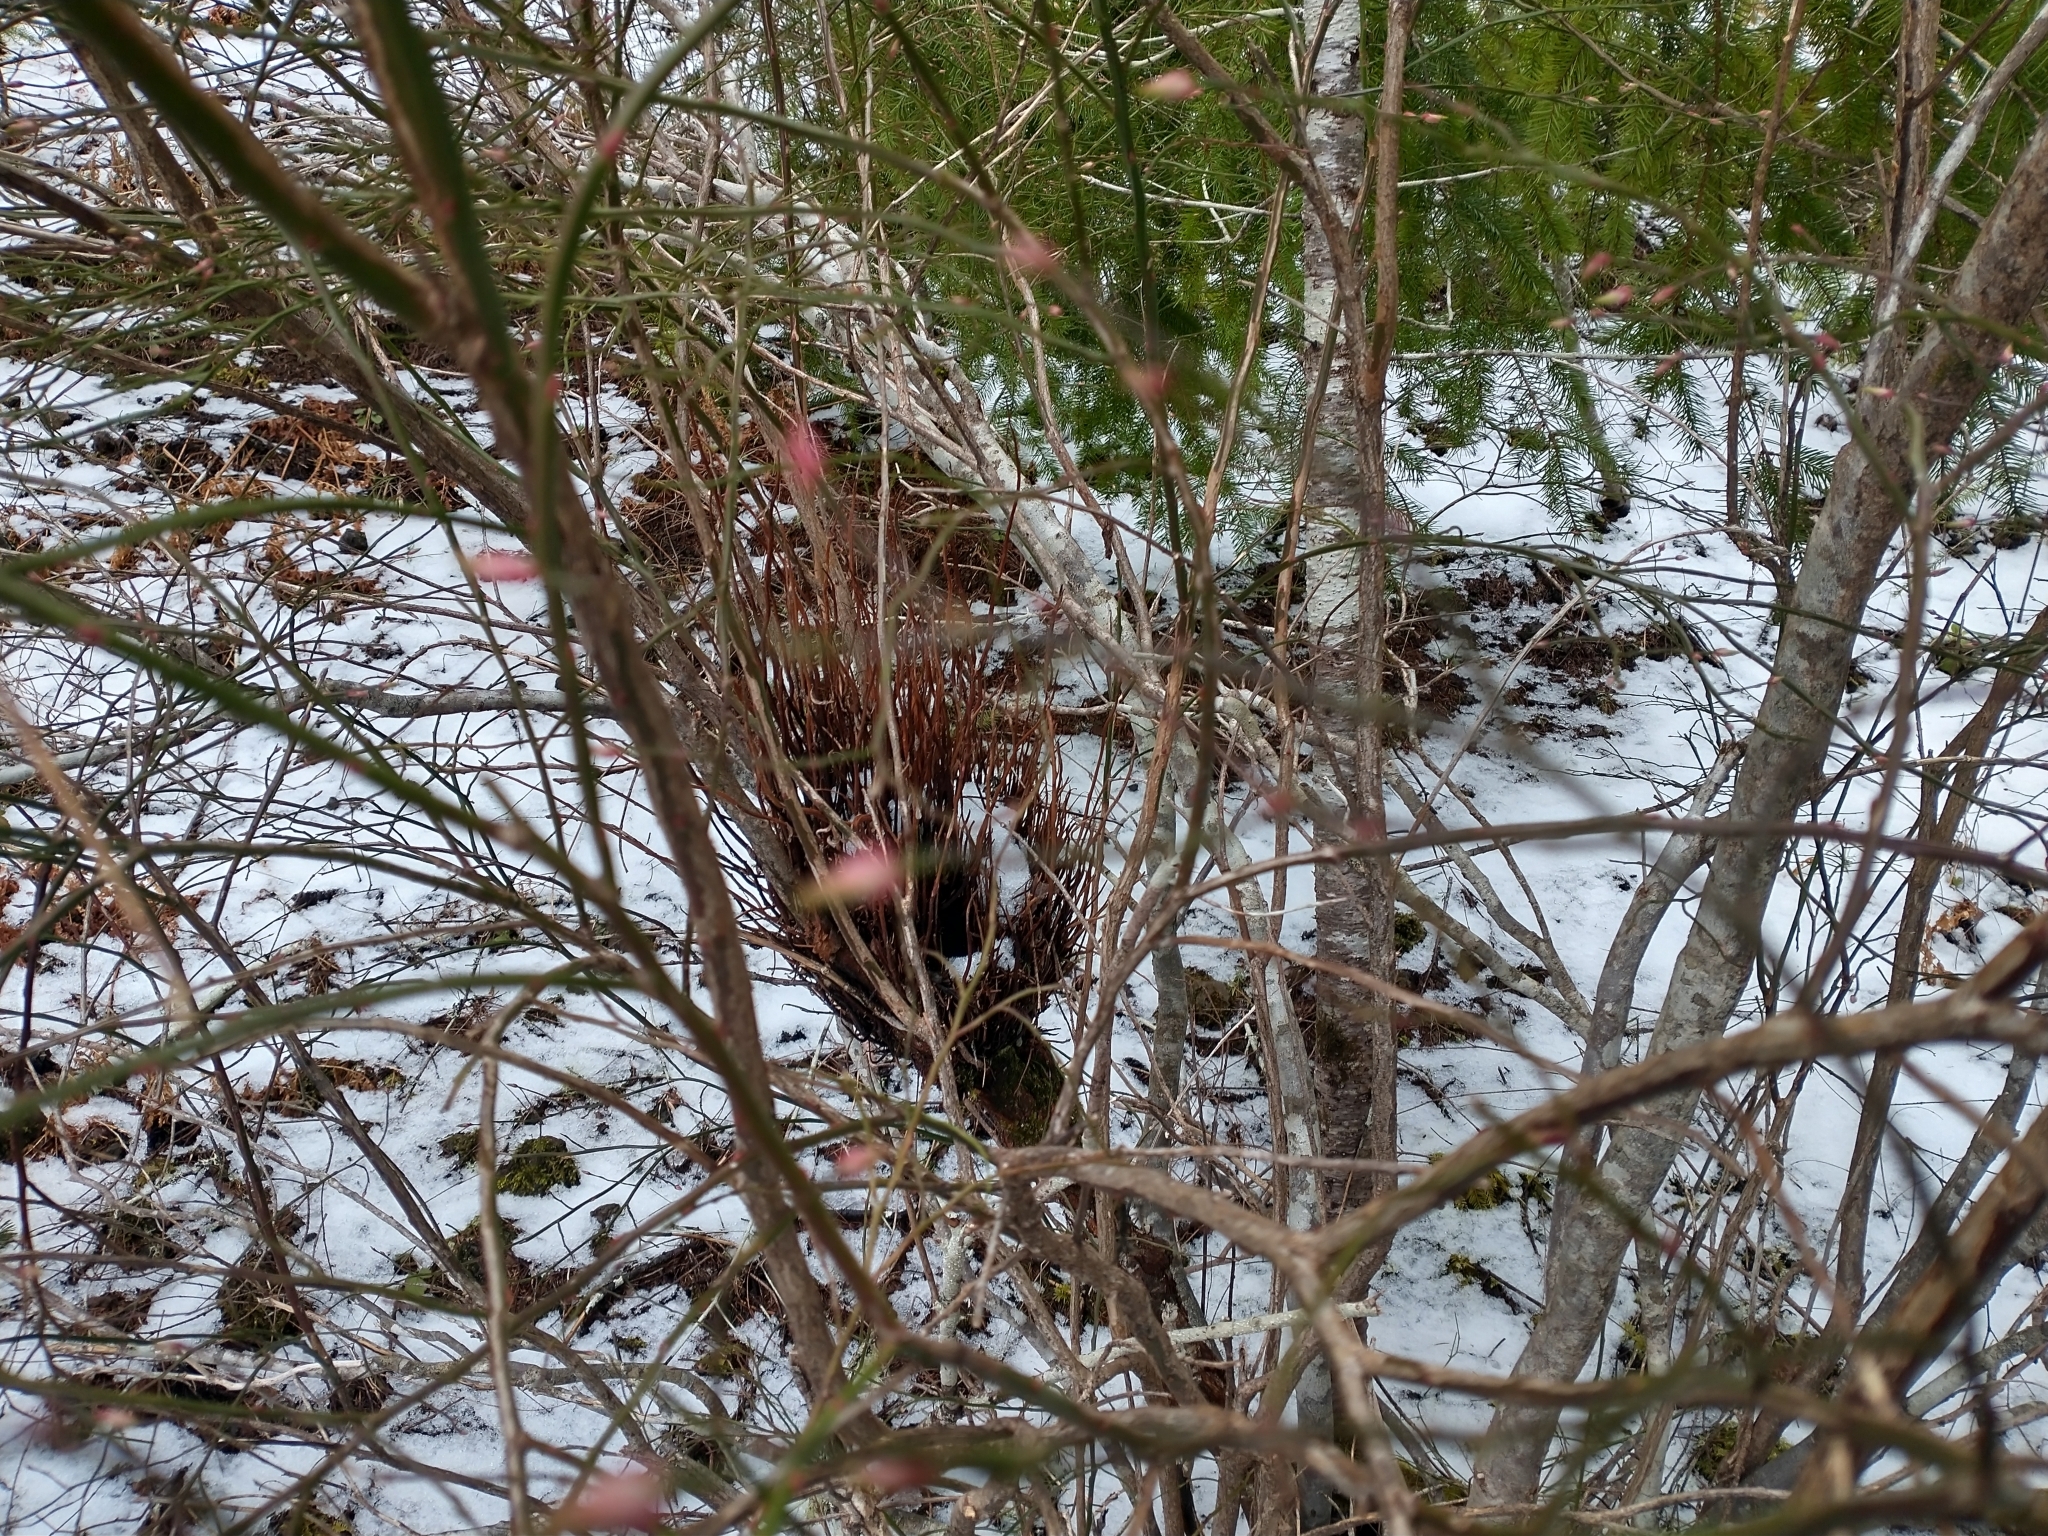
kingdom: Plantae
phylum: Tracheophyta
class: Magnoliopsida
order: Ericales
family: Ericaceae
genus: Vaccinium
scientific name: Vaccinium parvifolium
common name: Red-huckleberry
